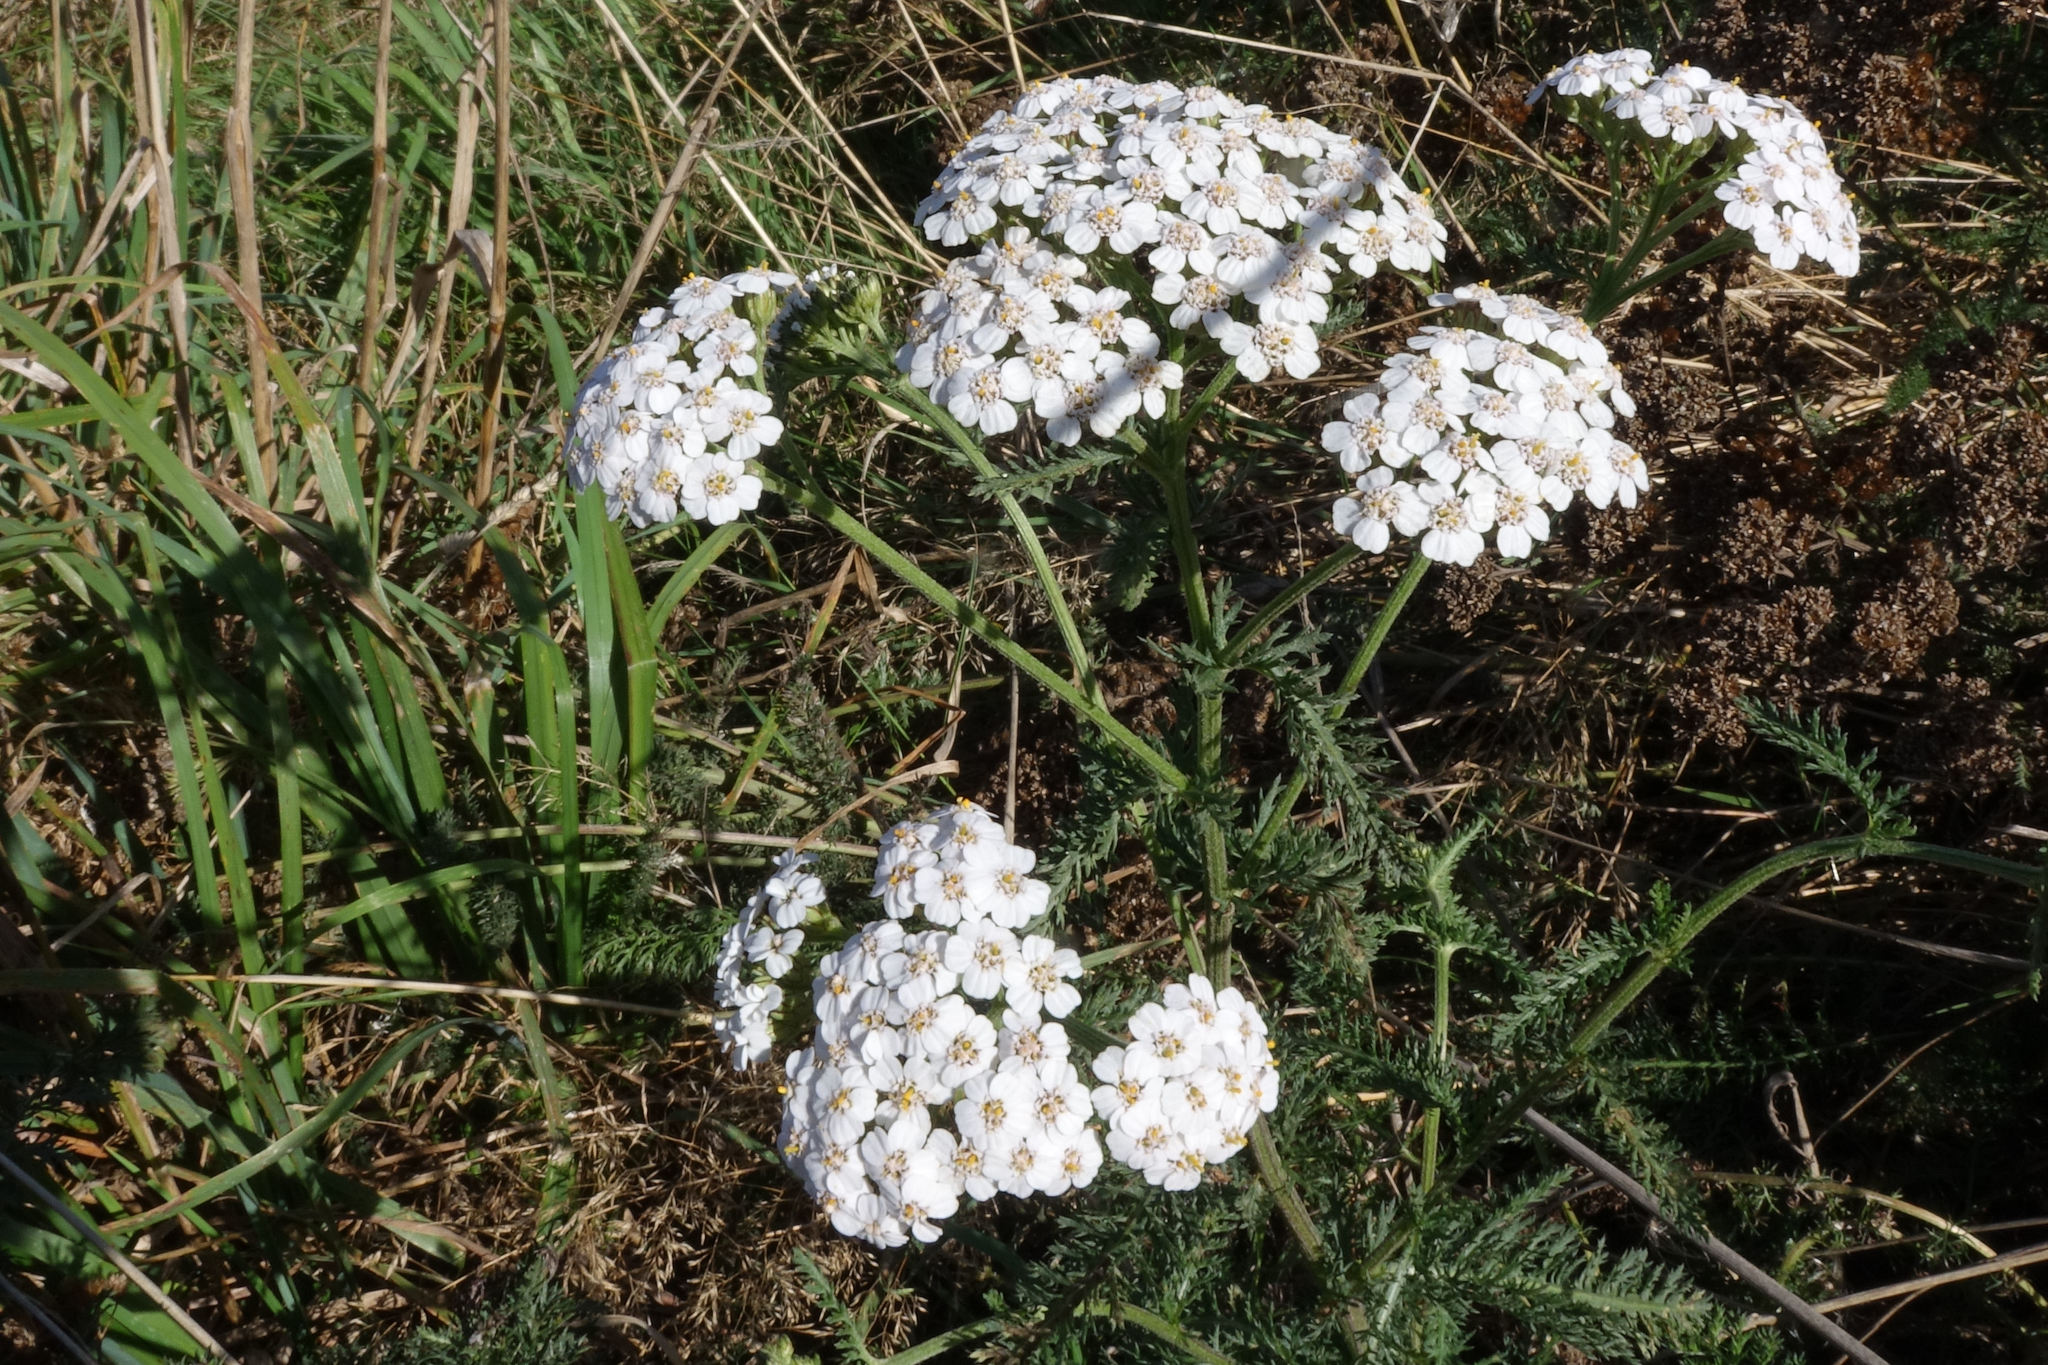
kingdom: Plantae
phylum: Tracheophyta
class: Magnoliopsida
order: Asterales
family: Asteraceae
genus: Achillea
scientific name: Achillea millefolium
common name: Yarrow
